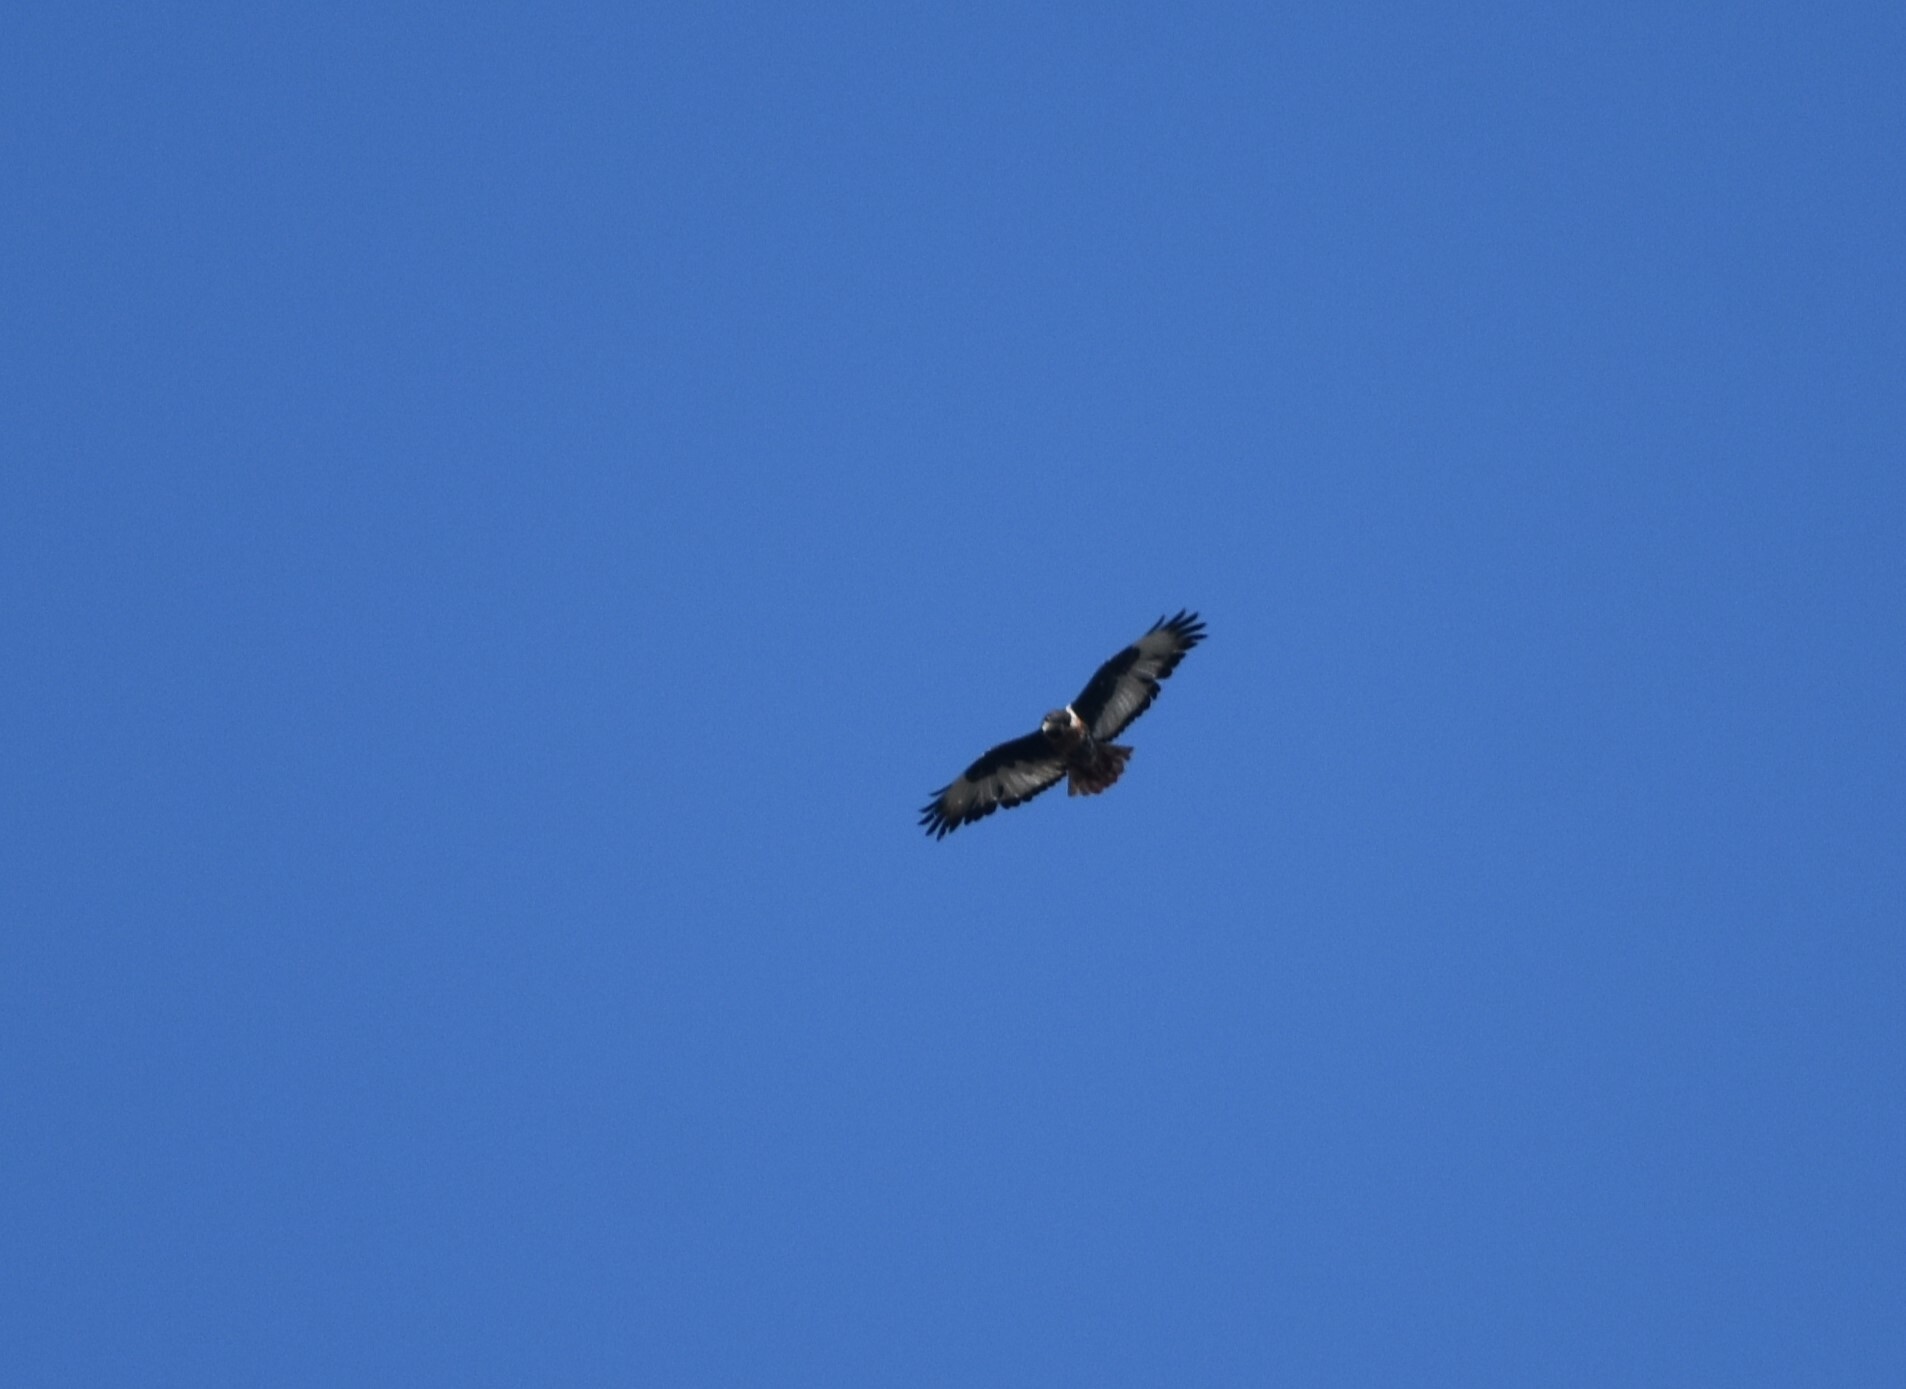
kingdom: Animalia
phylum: Chordata
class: Aves
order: Accipitriformes
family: Accipitridae
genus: Buteo
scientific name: Buteo rufofuscus
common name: Jackal buzzard
